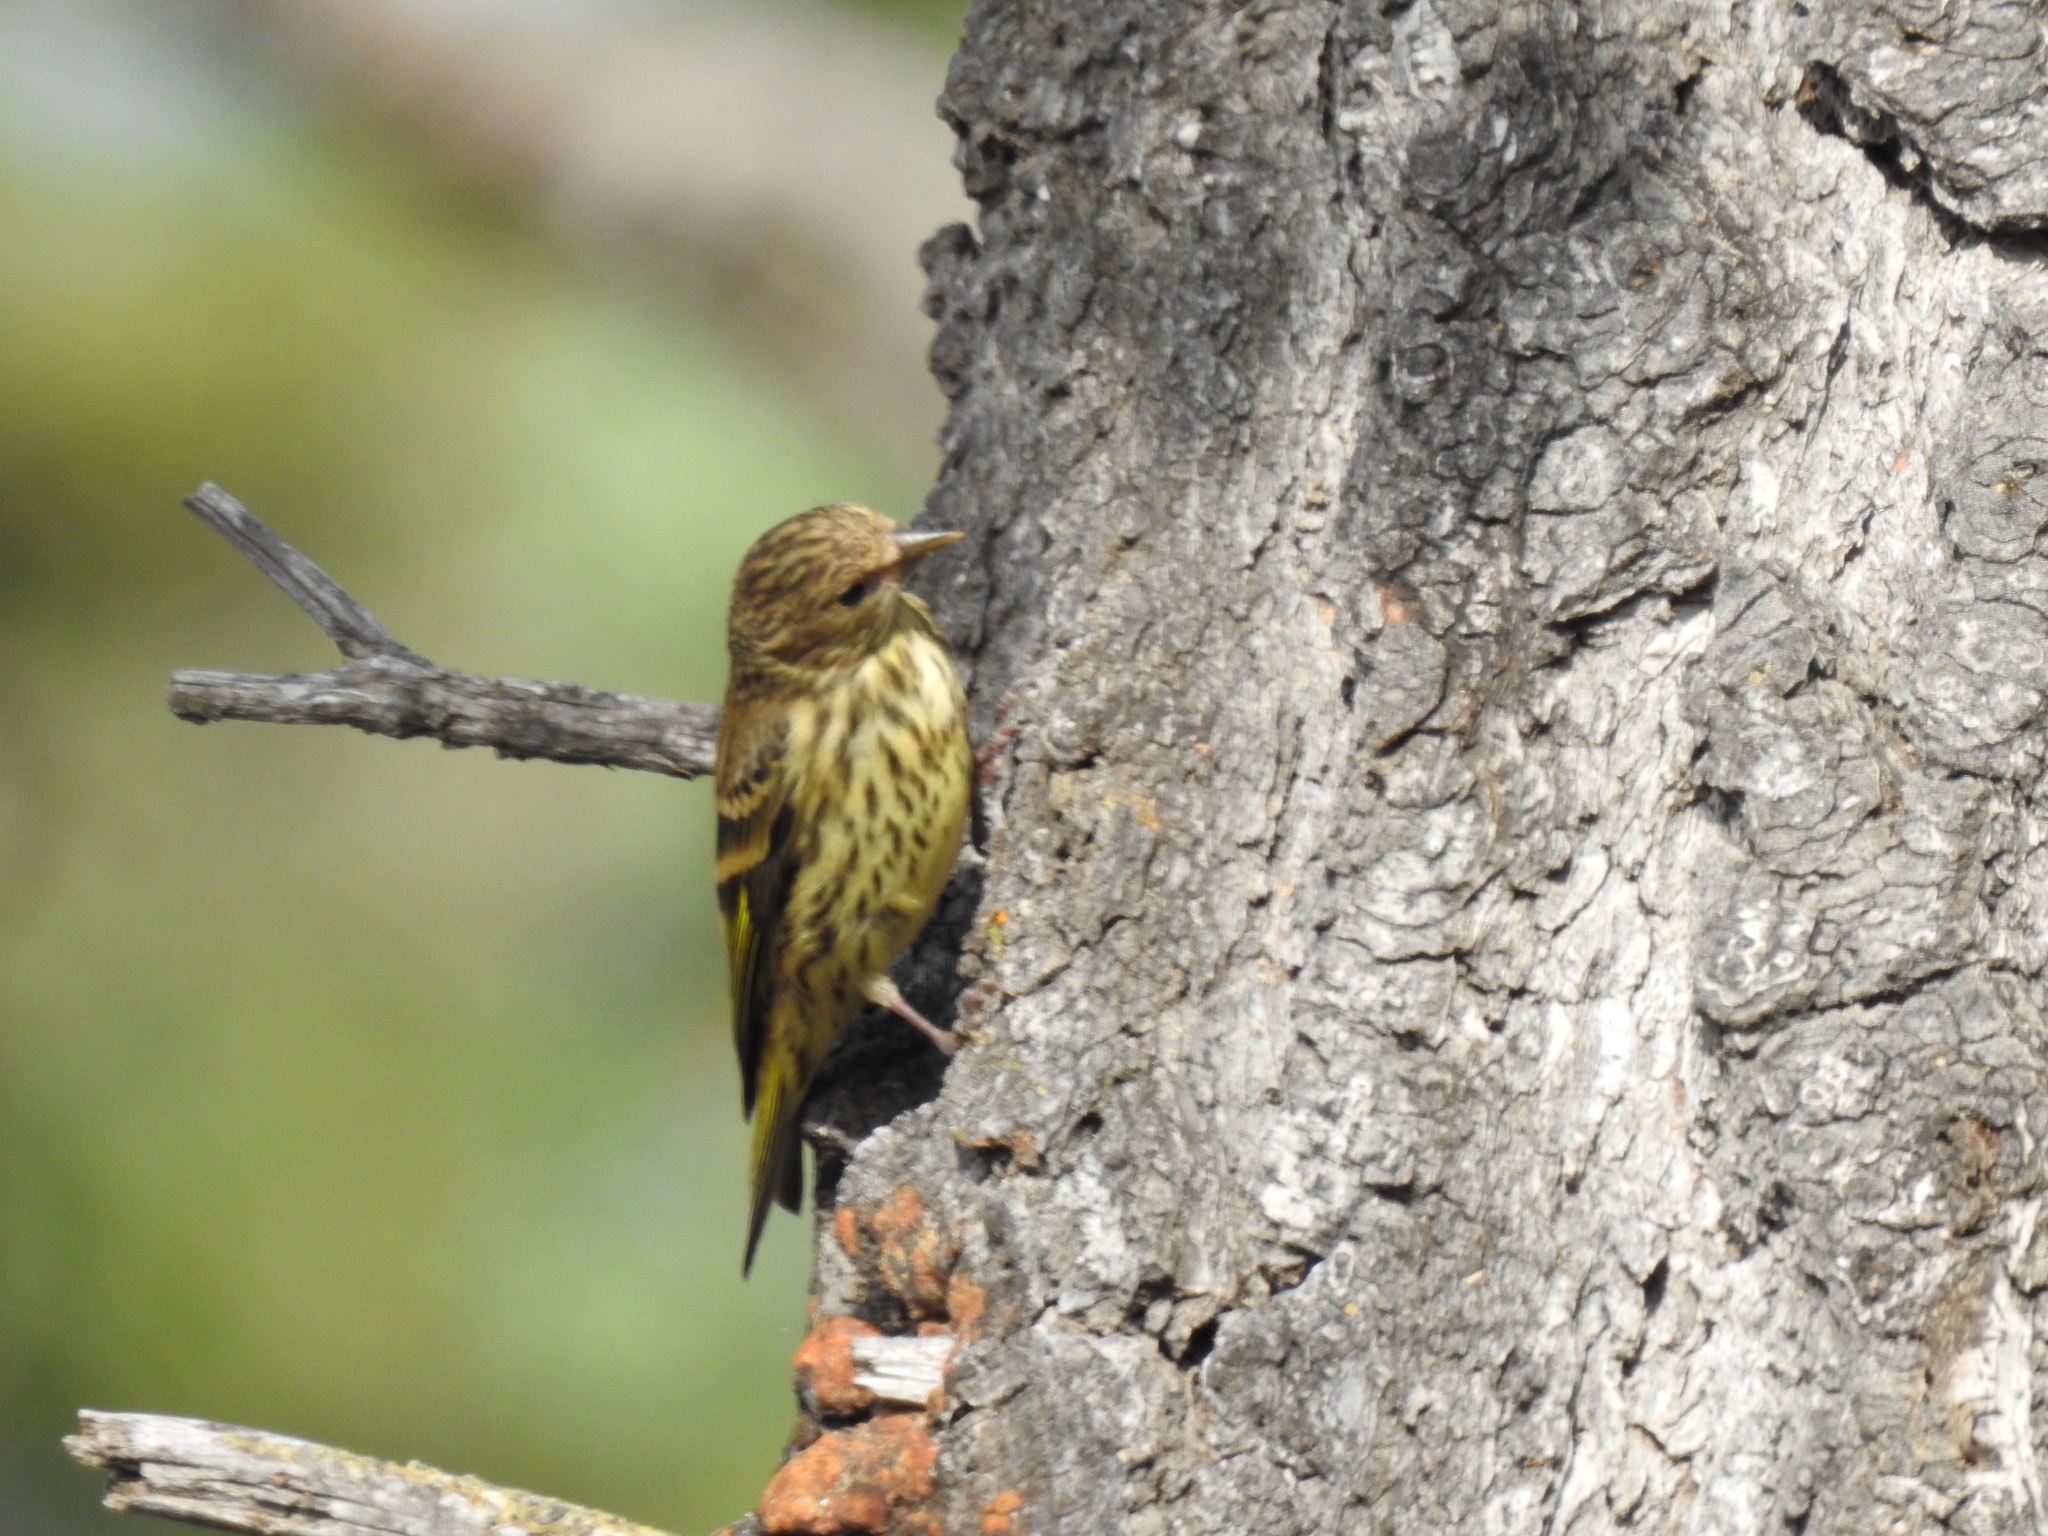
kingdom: Animalia
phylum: Chordata
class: Aves
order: Passeriformes
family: Fringillidae
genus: Spinus
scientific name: Spinus pinus
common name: Pine siskin
